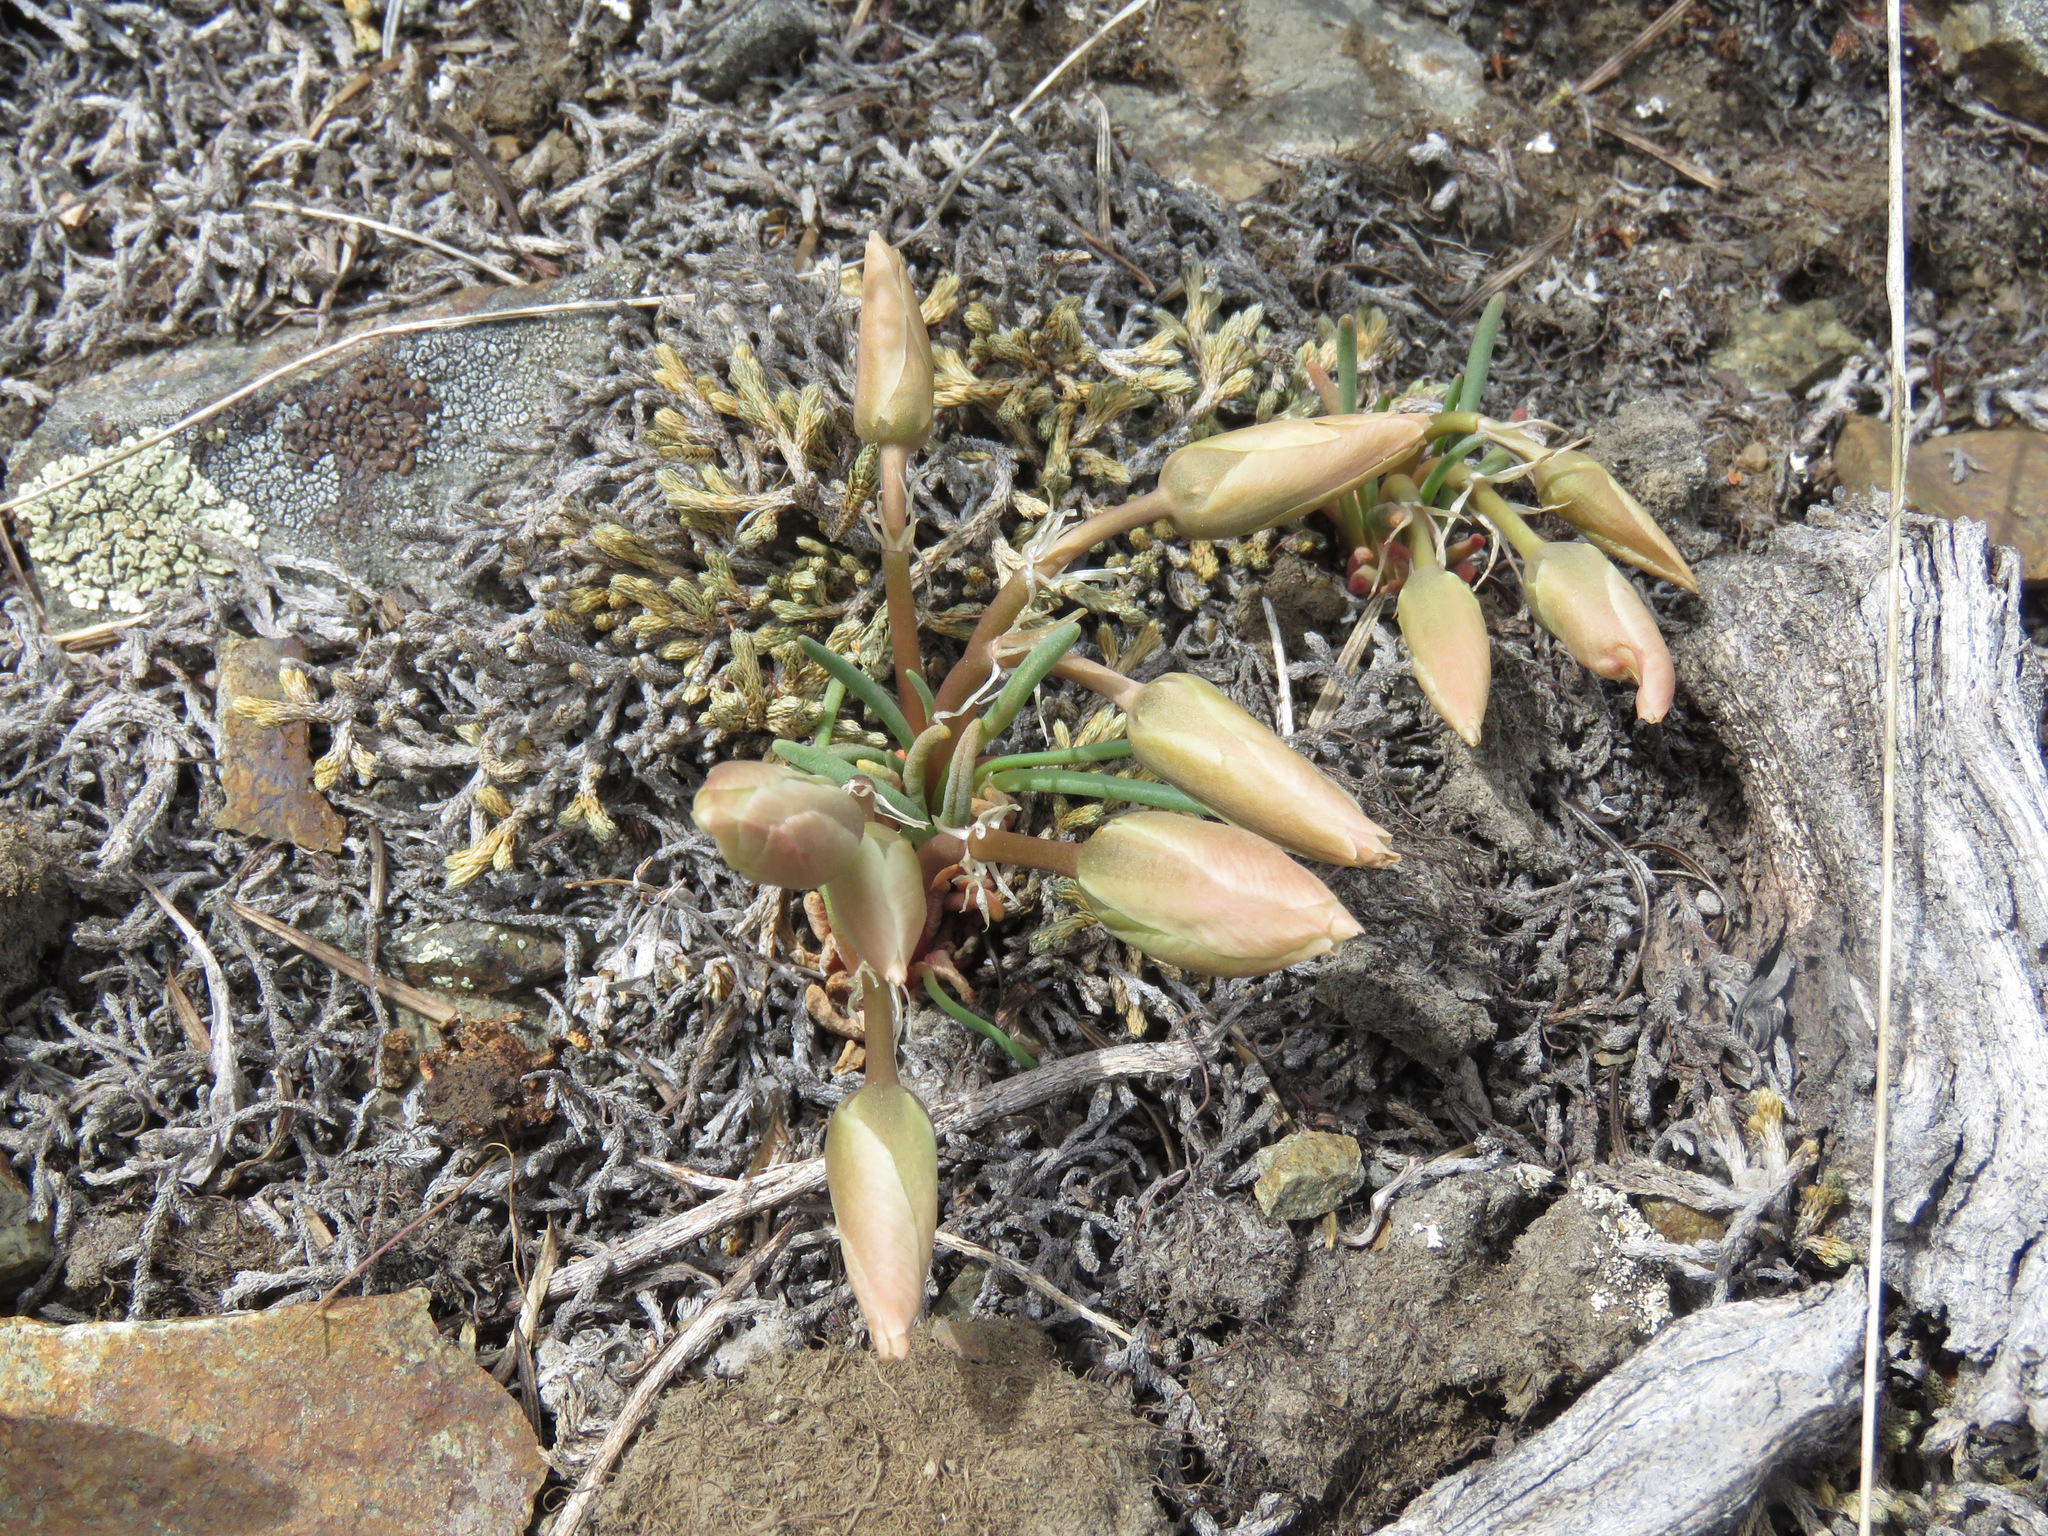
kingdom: Plantae
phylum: Tracheophyta
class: Magnoliopsida
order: Caryophyllales
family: Montiaceae
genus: Lewisia
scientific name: Lewisia rediviva
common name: Bitter-root
